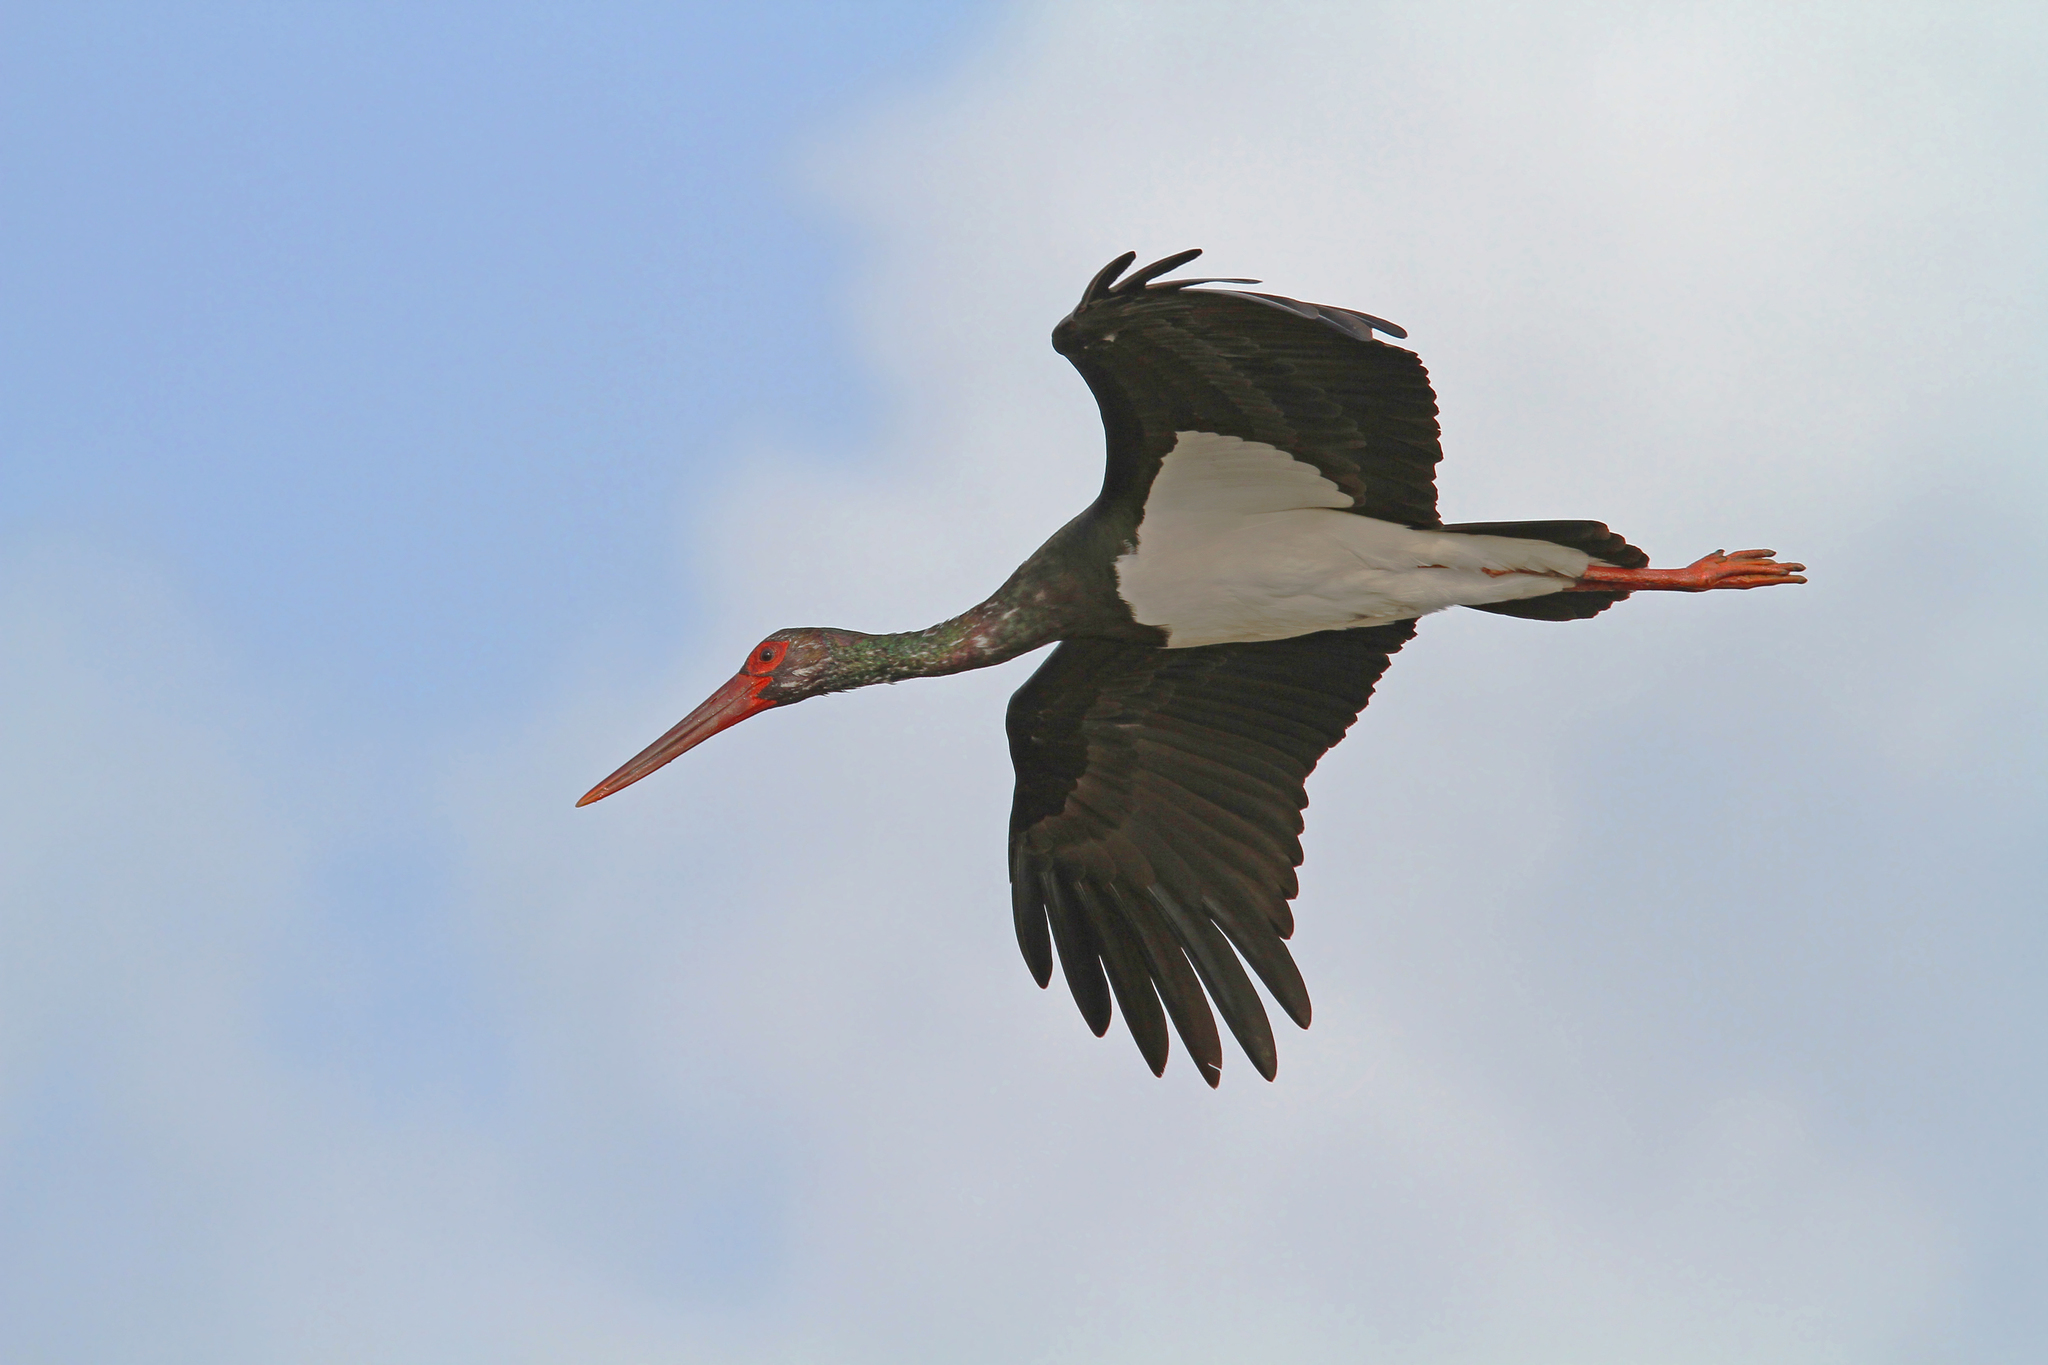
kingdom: Animalia
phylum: Chordata
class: Aves
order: Ciconiiformes
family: Ciconiidae
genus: Ciconia
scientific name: Ciconia nigra
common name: Black stork
